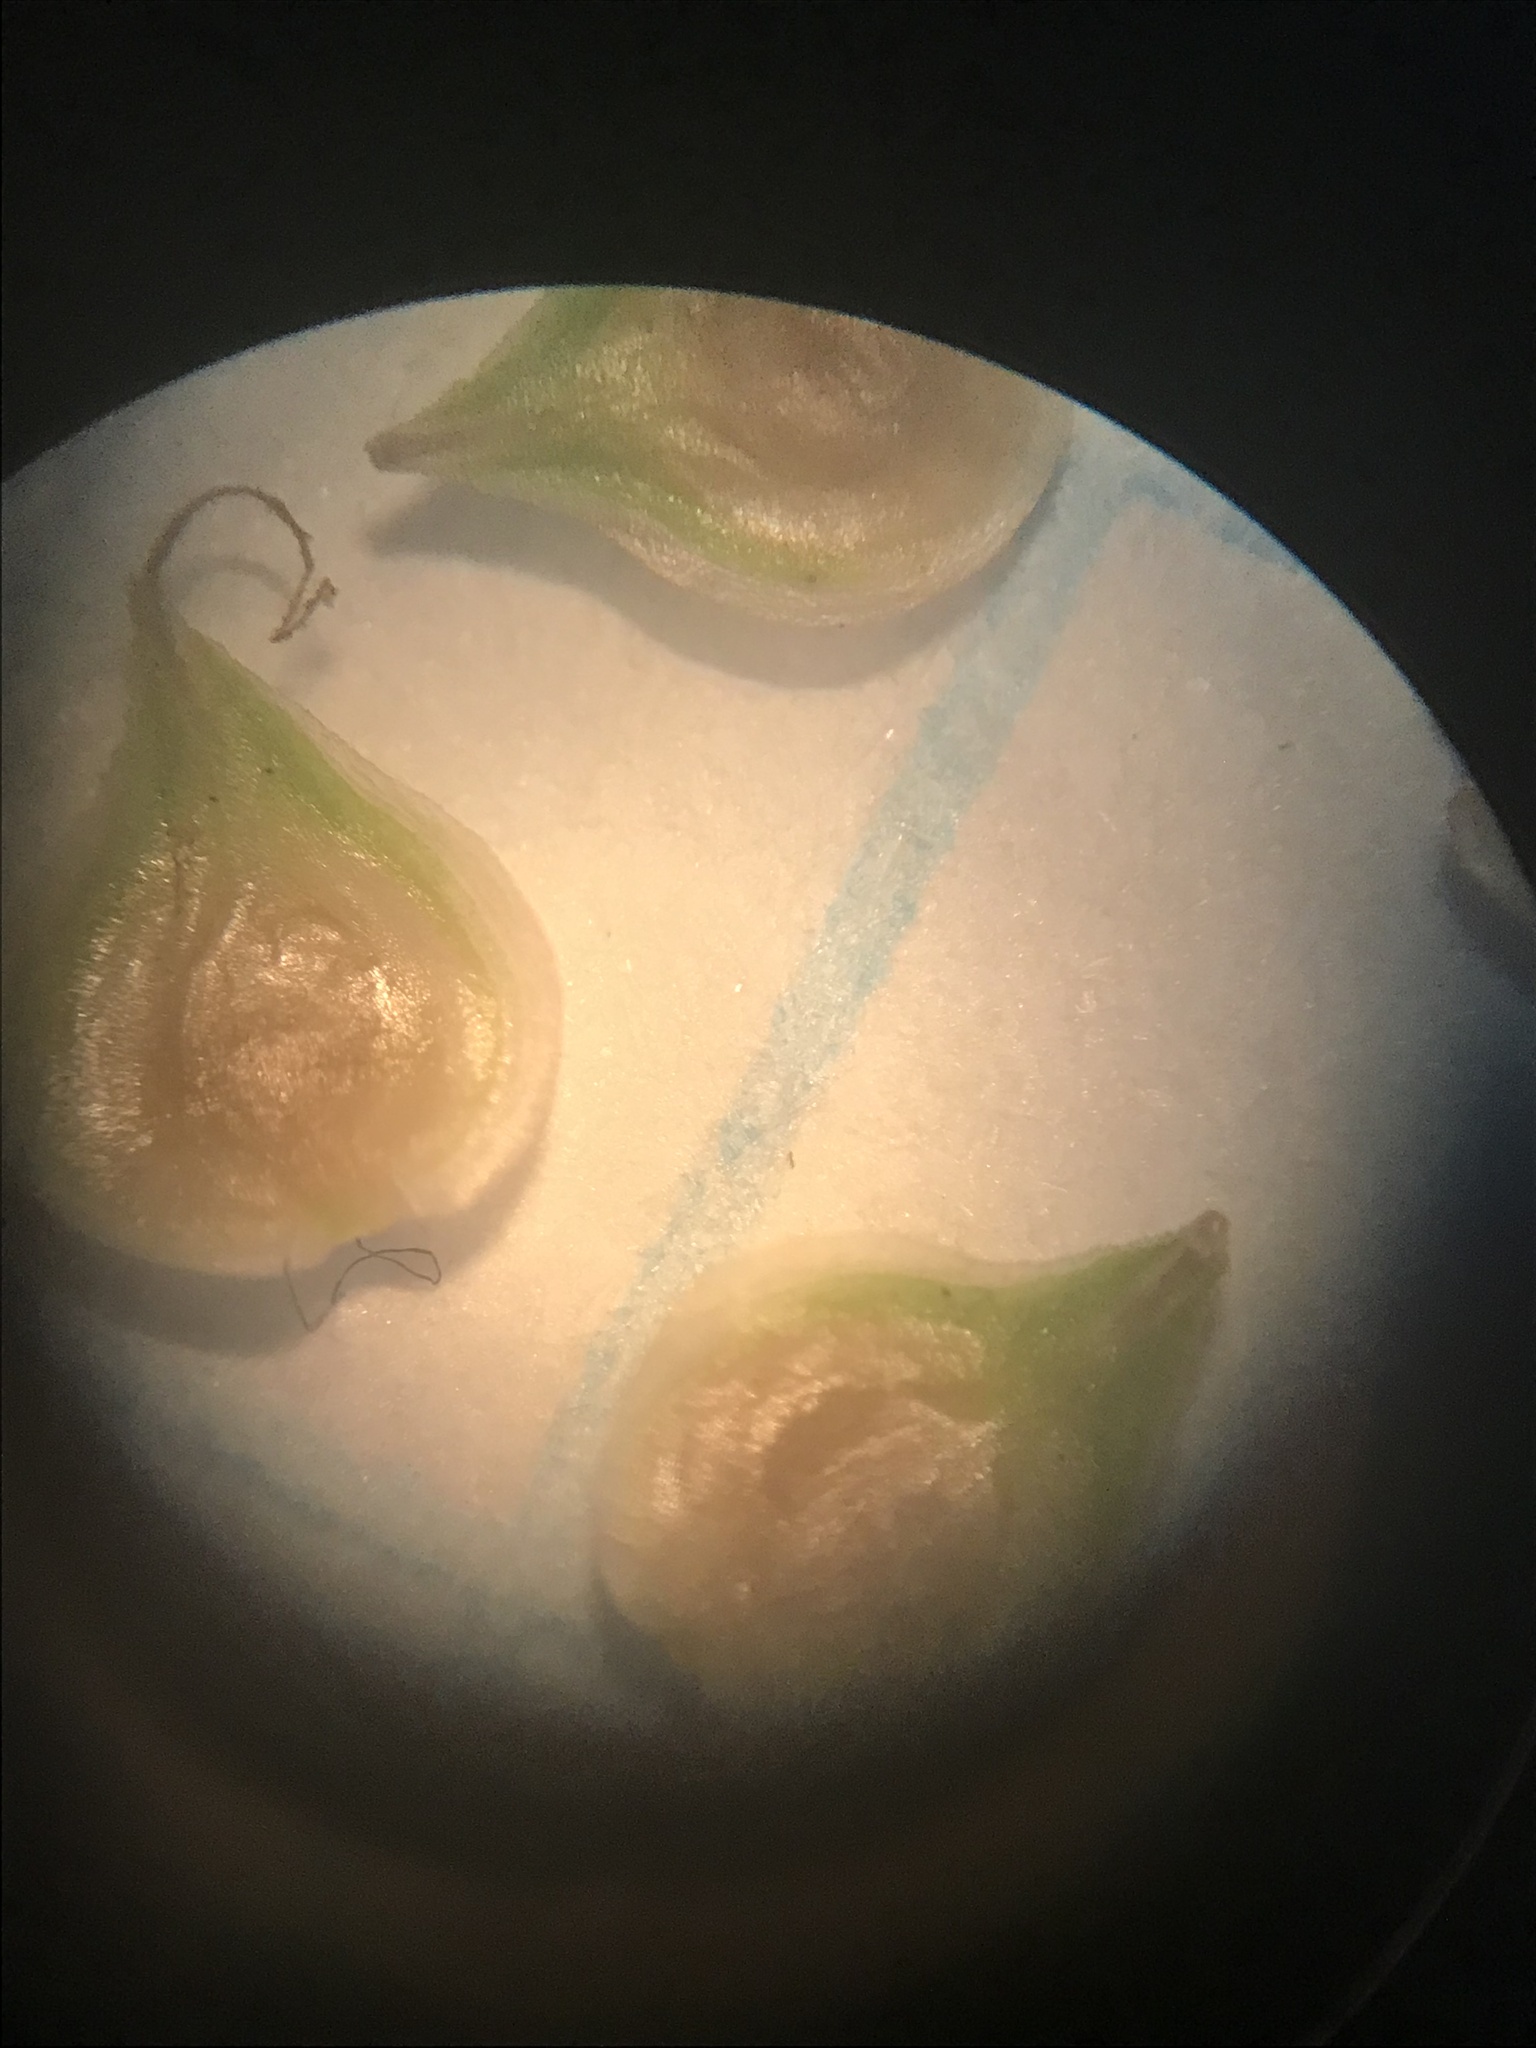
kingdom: Plantae
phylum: Tracheophyta
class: Liliopsida
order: Poales
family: Cyperaceae
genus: Carex
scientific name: Carex brevior
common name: Brevior sedge
